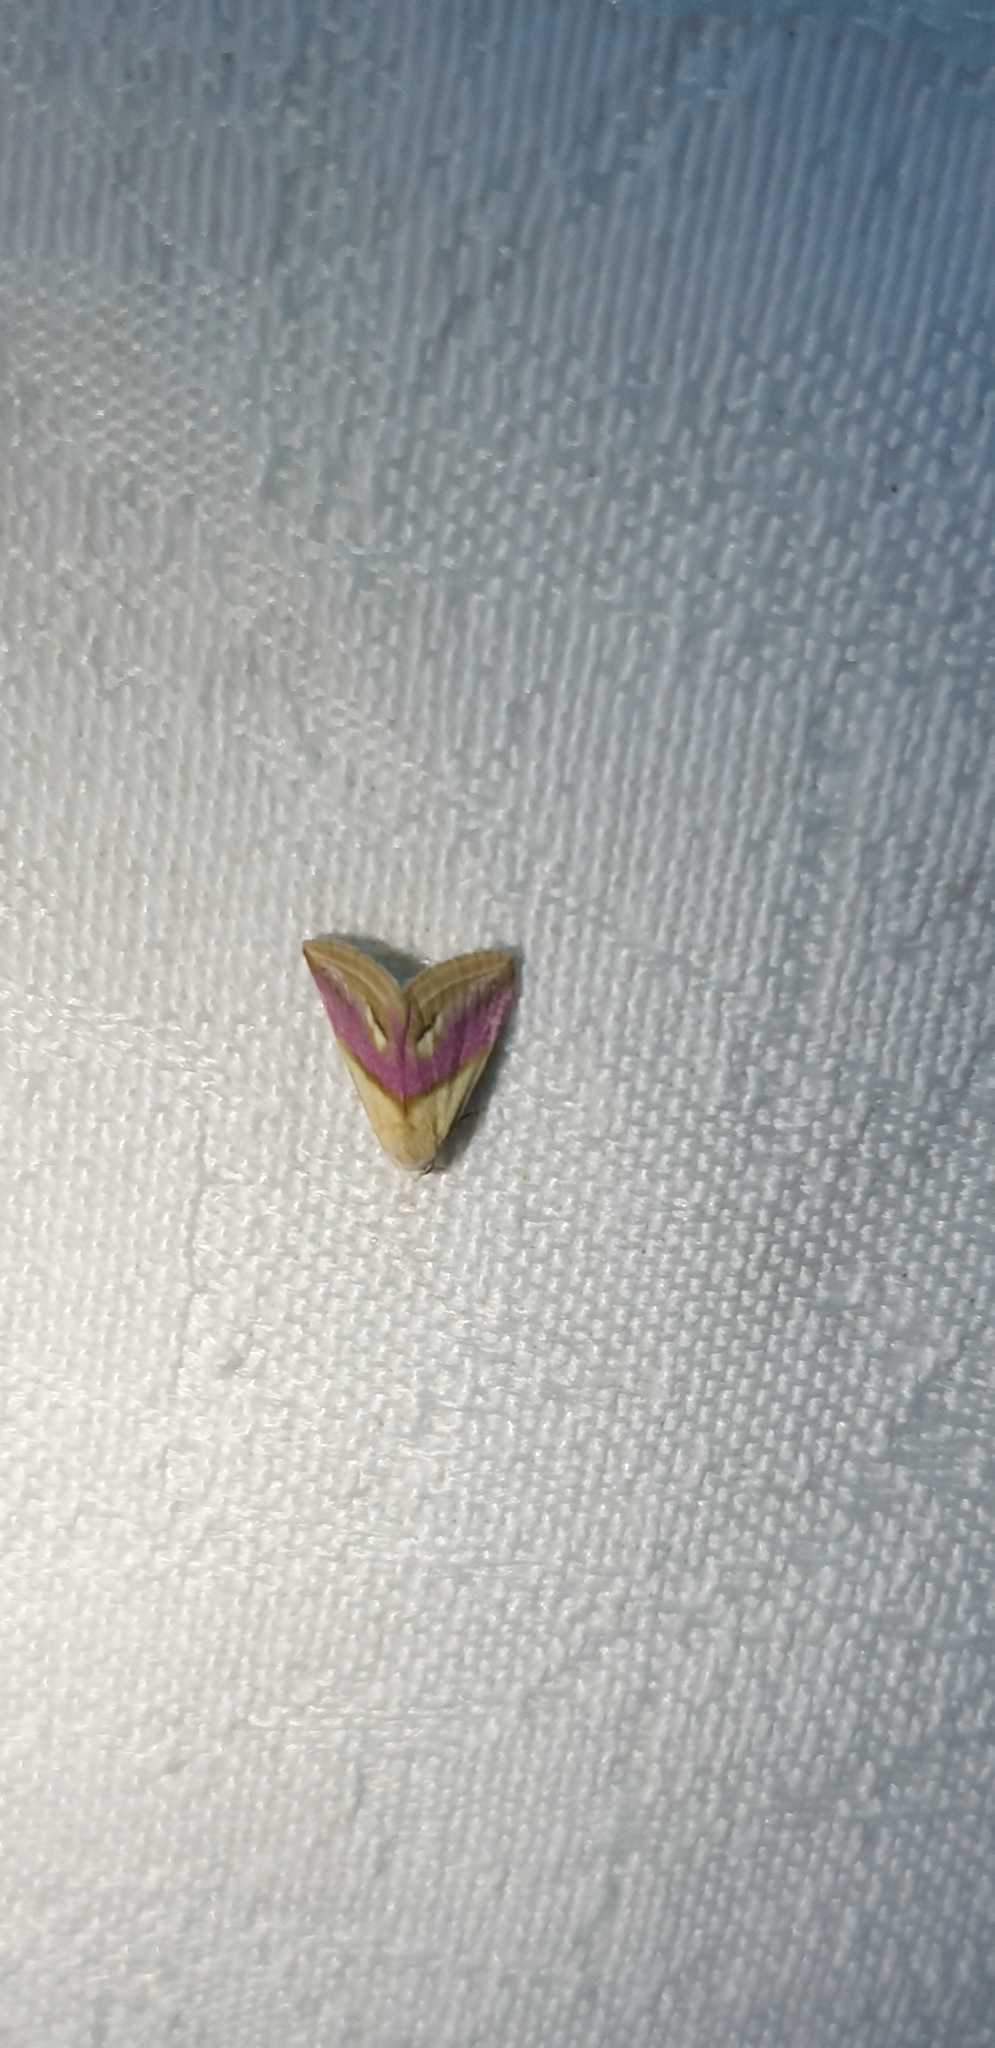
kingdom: Animalia
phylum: Arthropoda
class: Insecta
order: Lepidoptera
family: Noctuidae
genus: Eublemma
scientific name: Eublemma cochylioides
